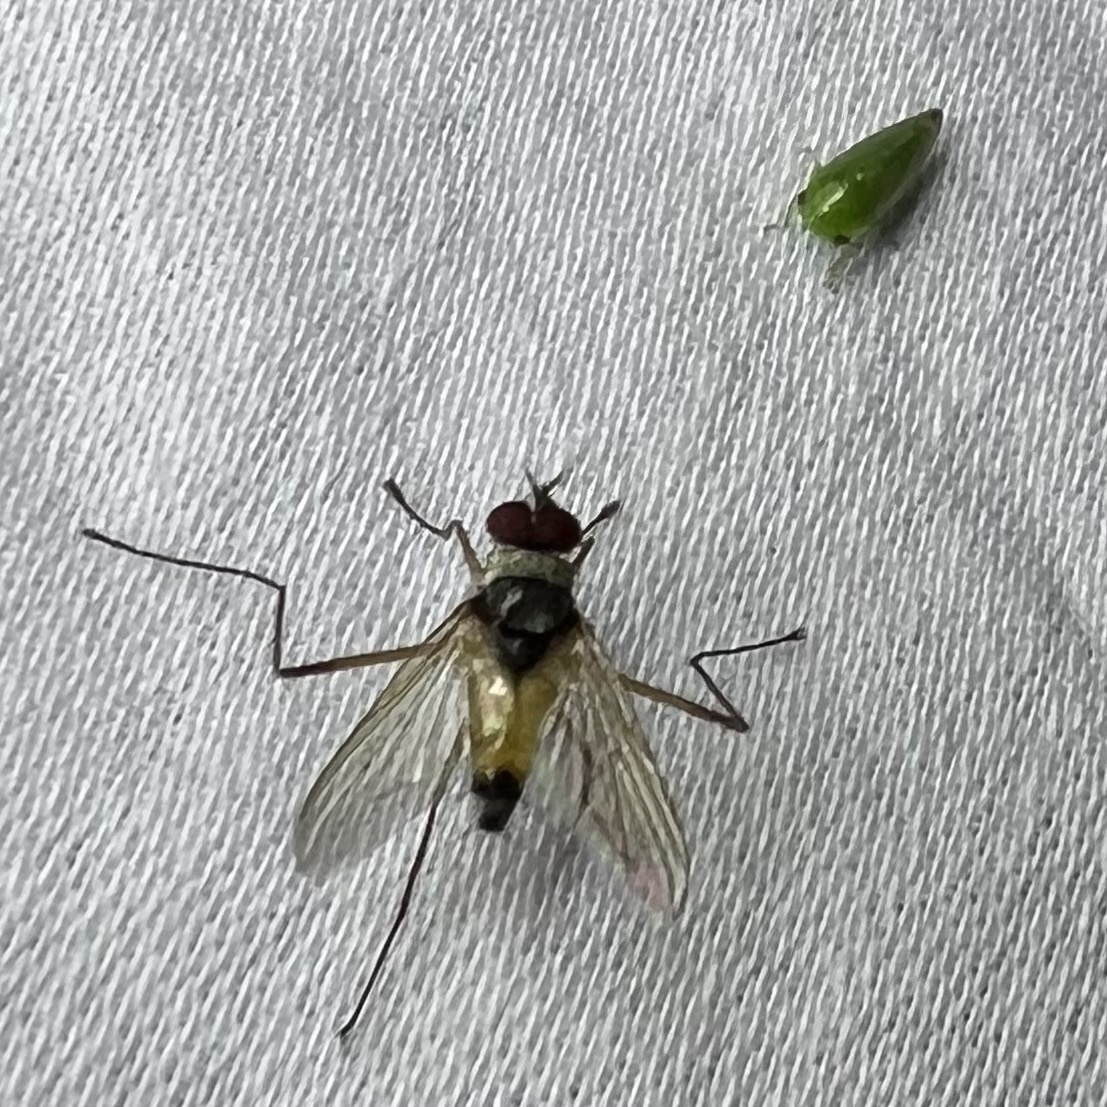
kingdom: Animalia
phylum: Arthropoda
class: Insecta
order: Diptera
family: Tachinidae
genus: Cholomyia
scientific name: Cholomyia inaequipes
